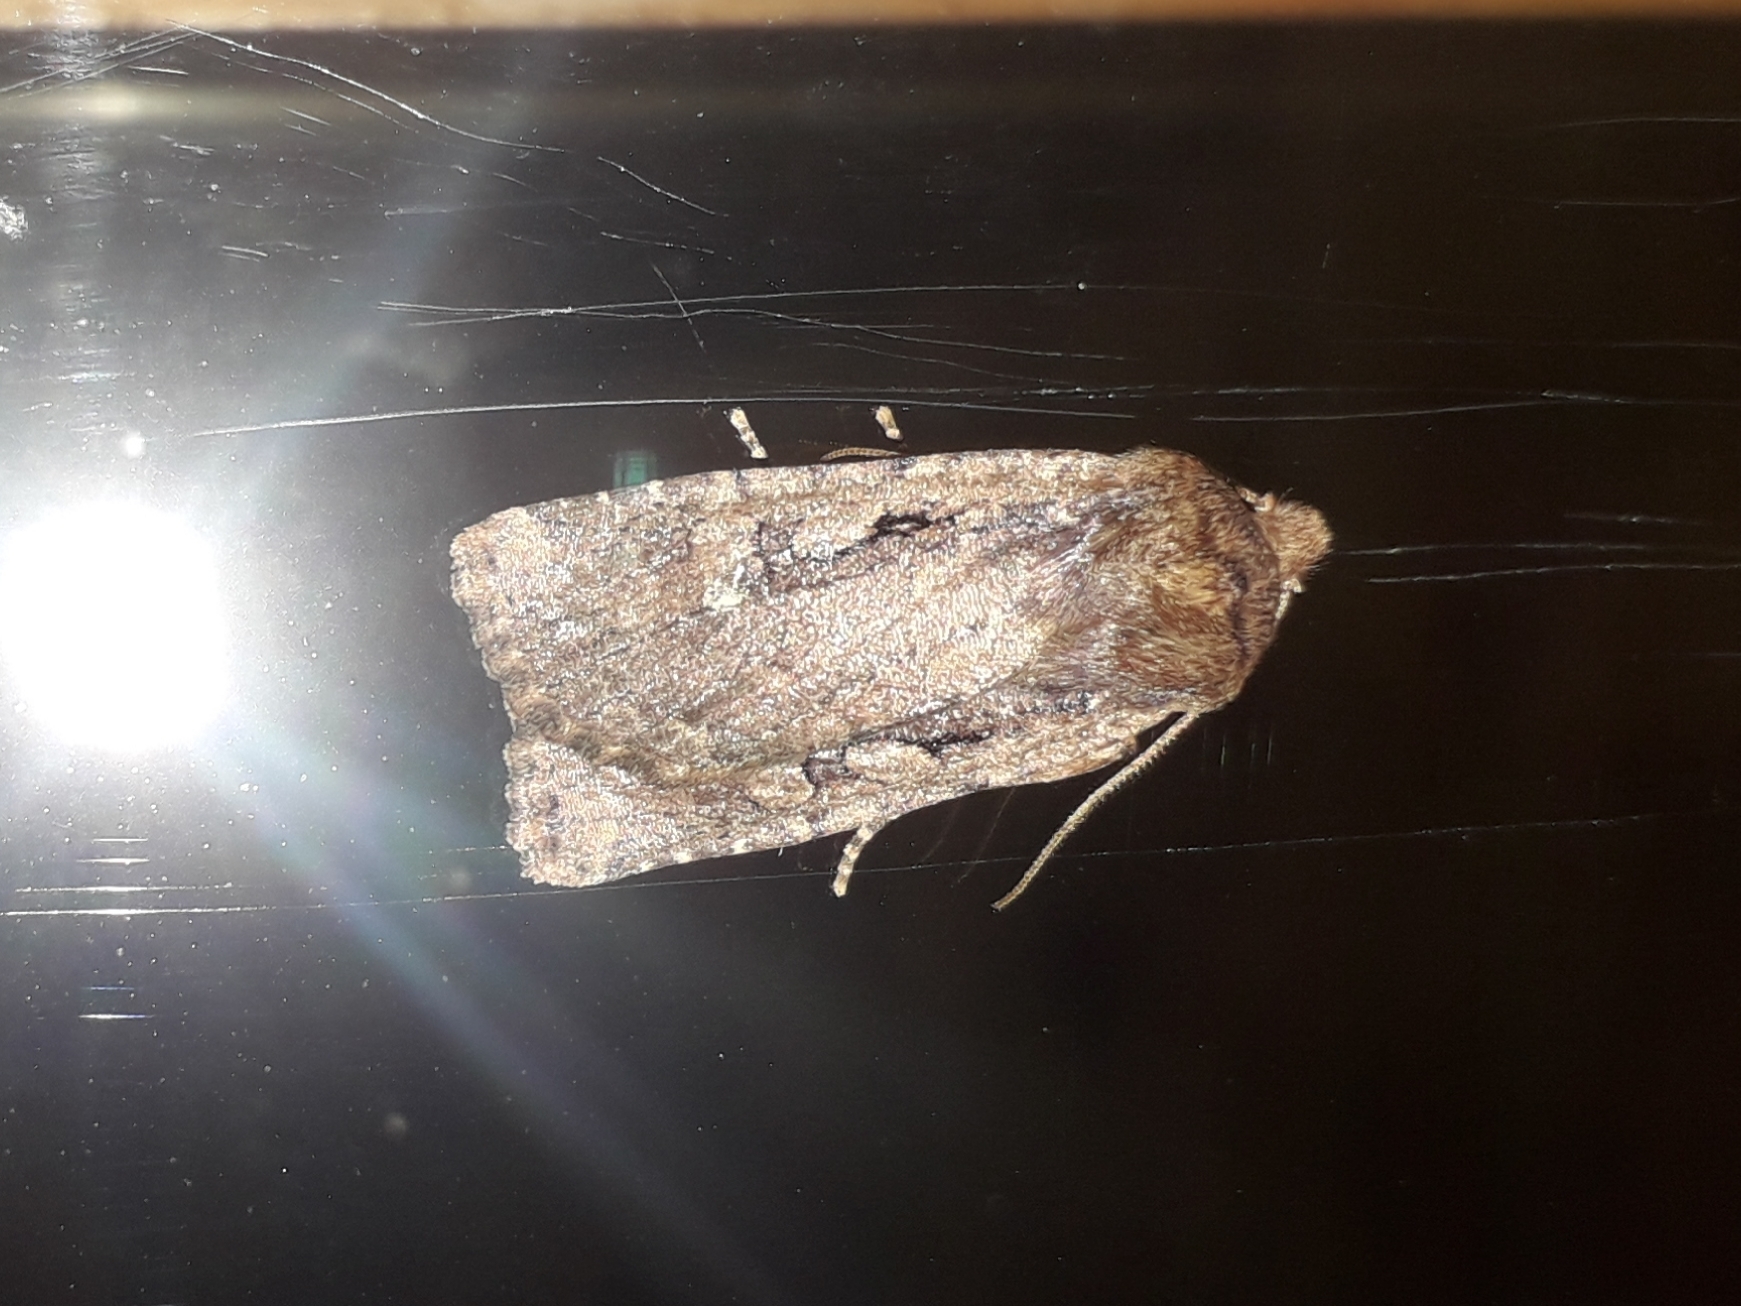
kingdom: Animalia
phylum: Arthropoda
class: Insecta
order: Lepidoptera
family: Noctuidae
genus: Conistra
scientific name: Conistra torrida
